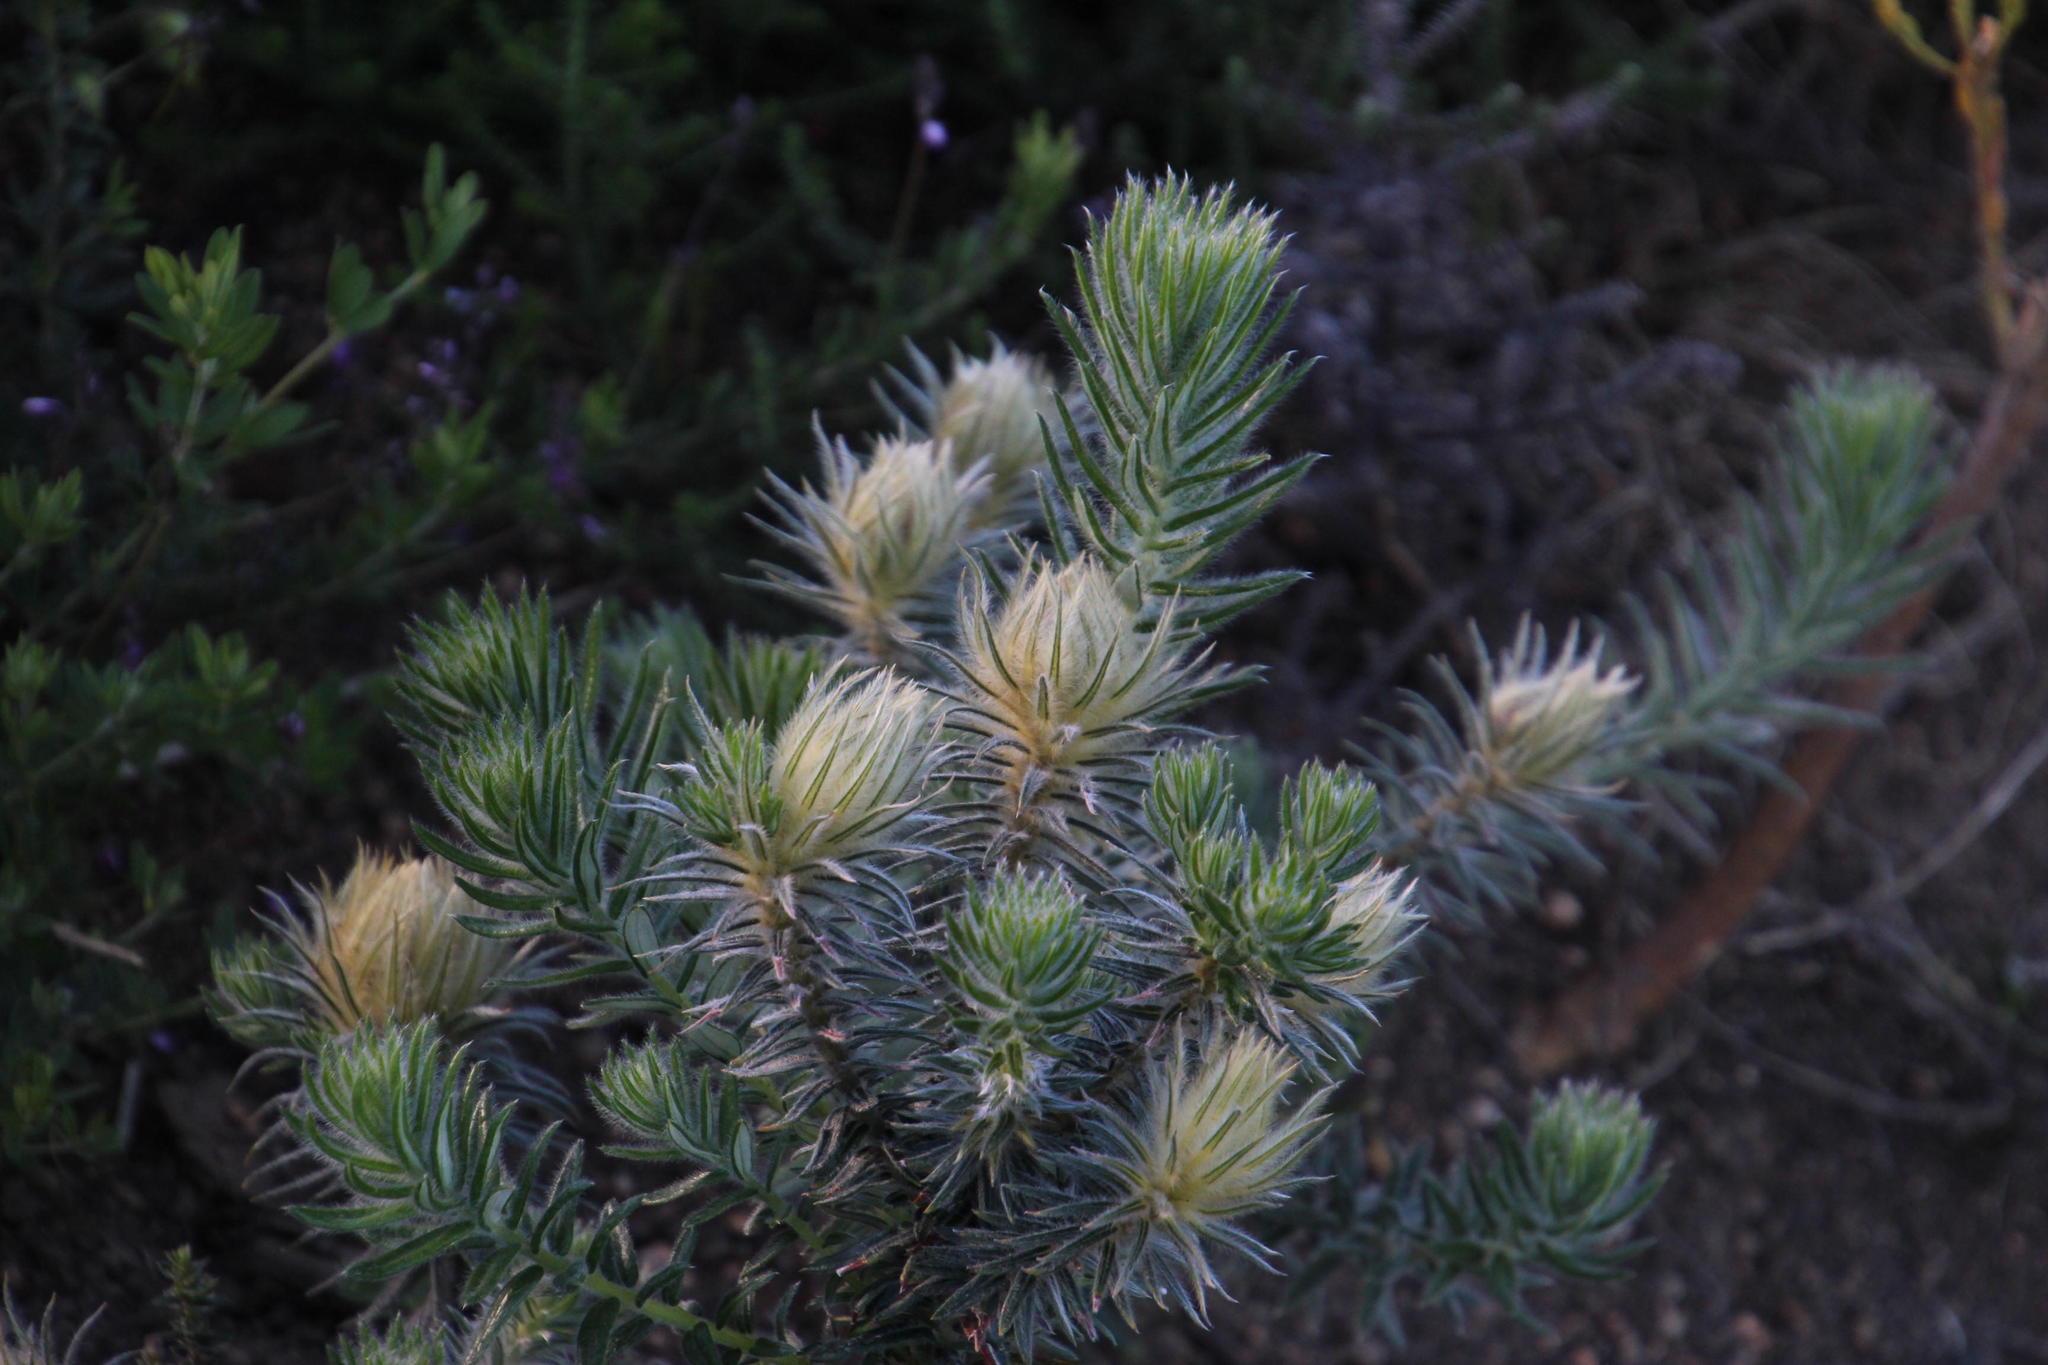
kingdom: Plantae
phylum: Tracheophyta
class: Magnoliopsida
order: Rosales
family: Rhamnaceae
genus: Phylica
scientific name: Phylica plumosa
